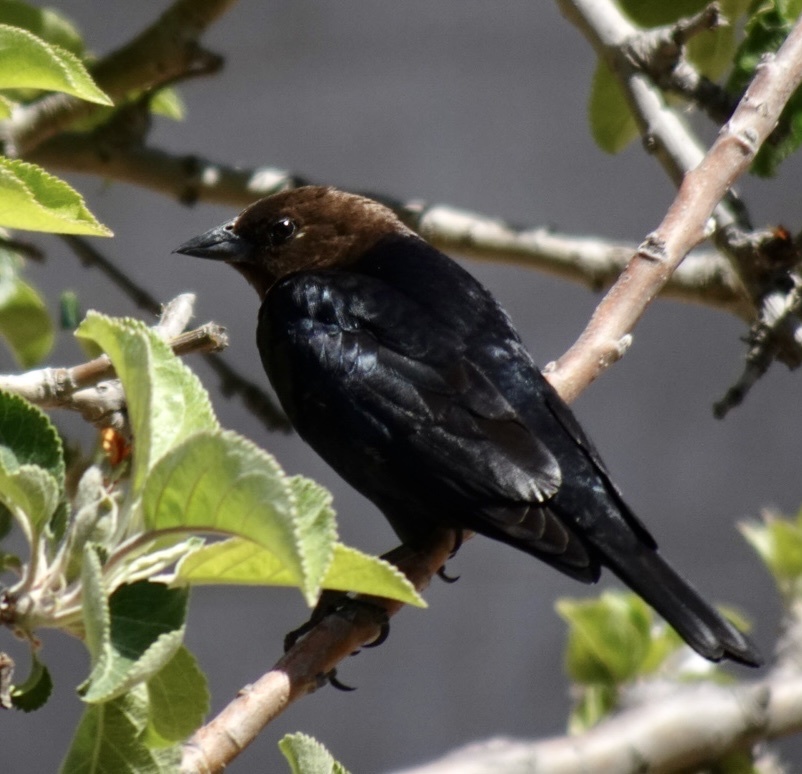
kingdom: Animalia
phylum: Chordata
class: Aves
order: Passeriformes
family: Icteridae
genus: Molothrus
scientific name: Molothrus ater
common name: Brown-headed cowbird
